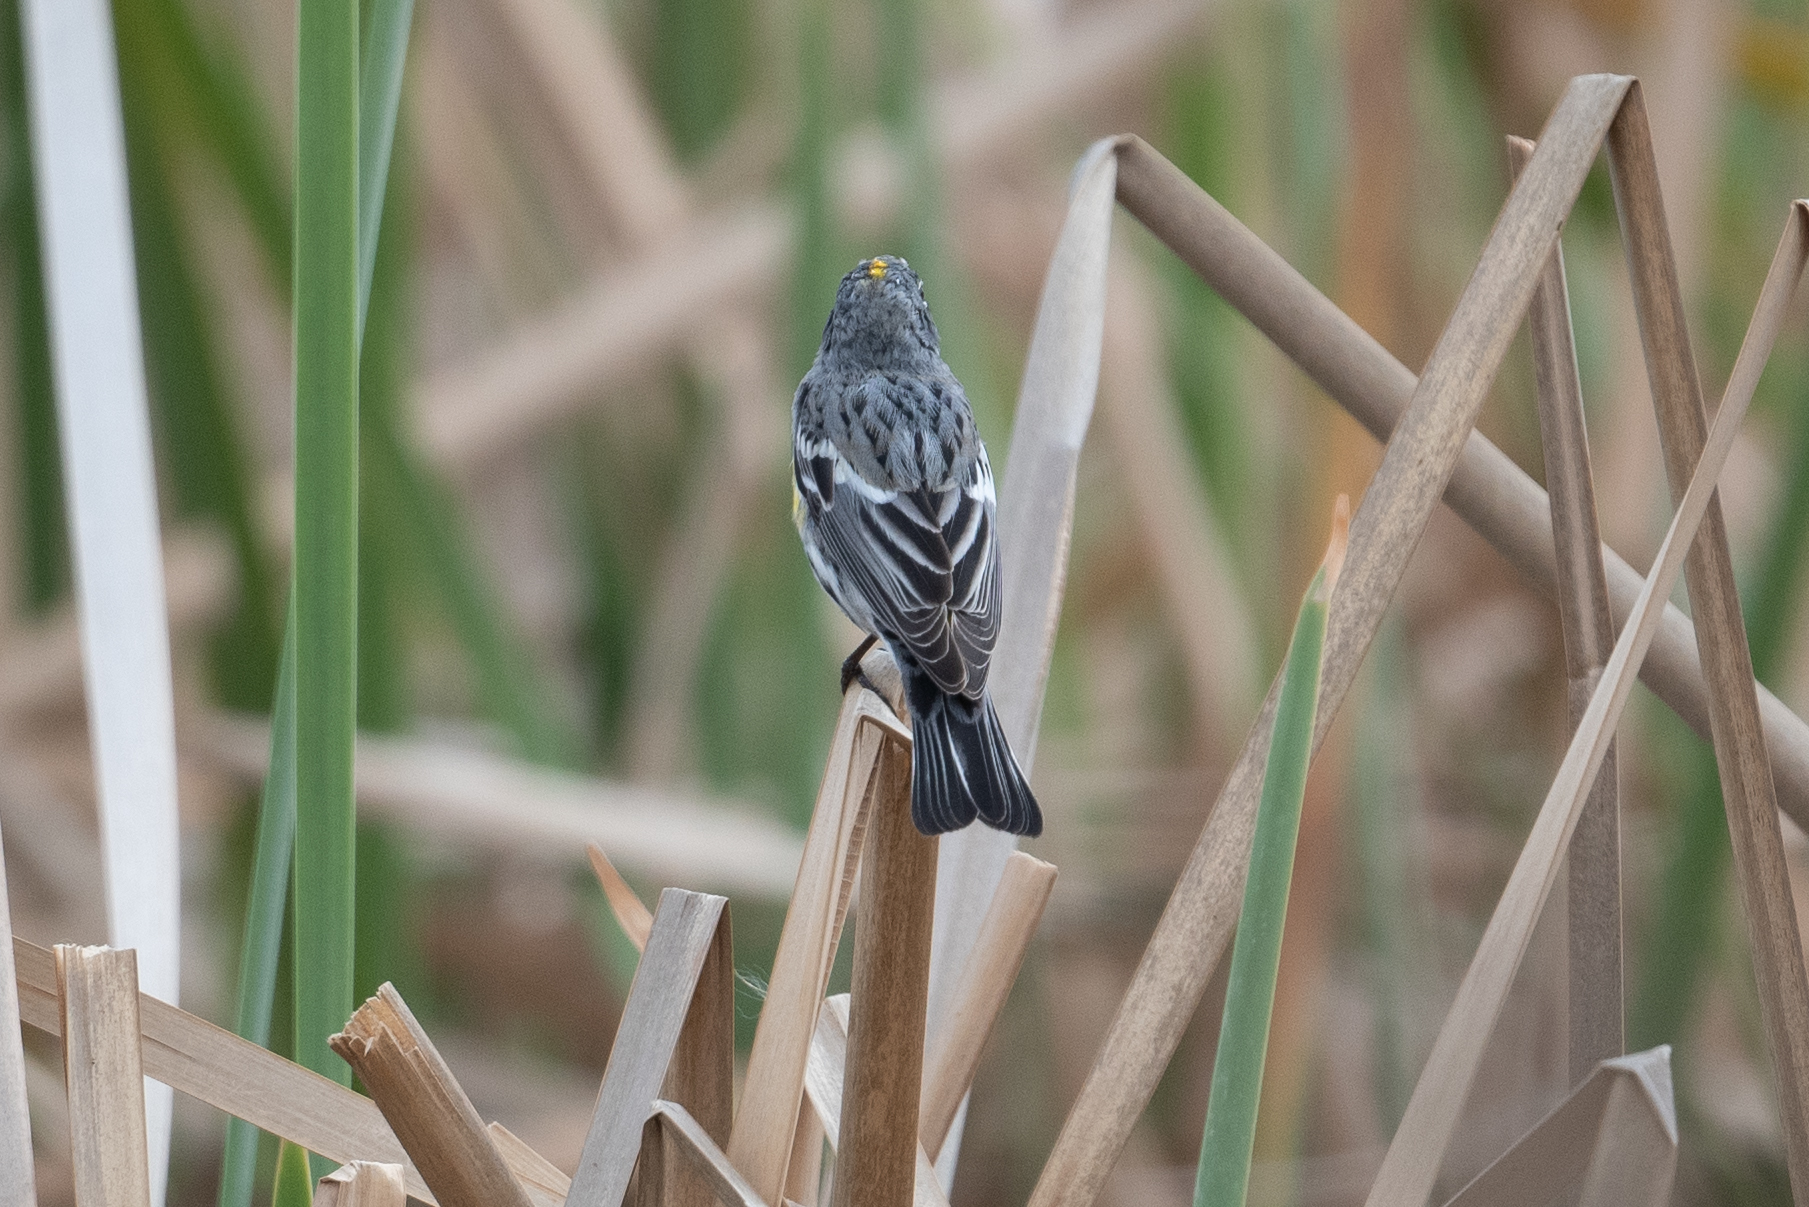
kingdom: Animalia
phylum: Chordata
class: Aves
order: Passeriformes
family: Parulidae
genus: Setophaga
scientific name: Setophaga coronata
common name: Myrtle warbler
